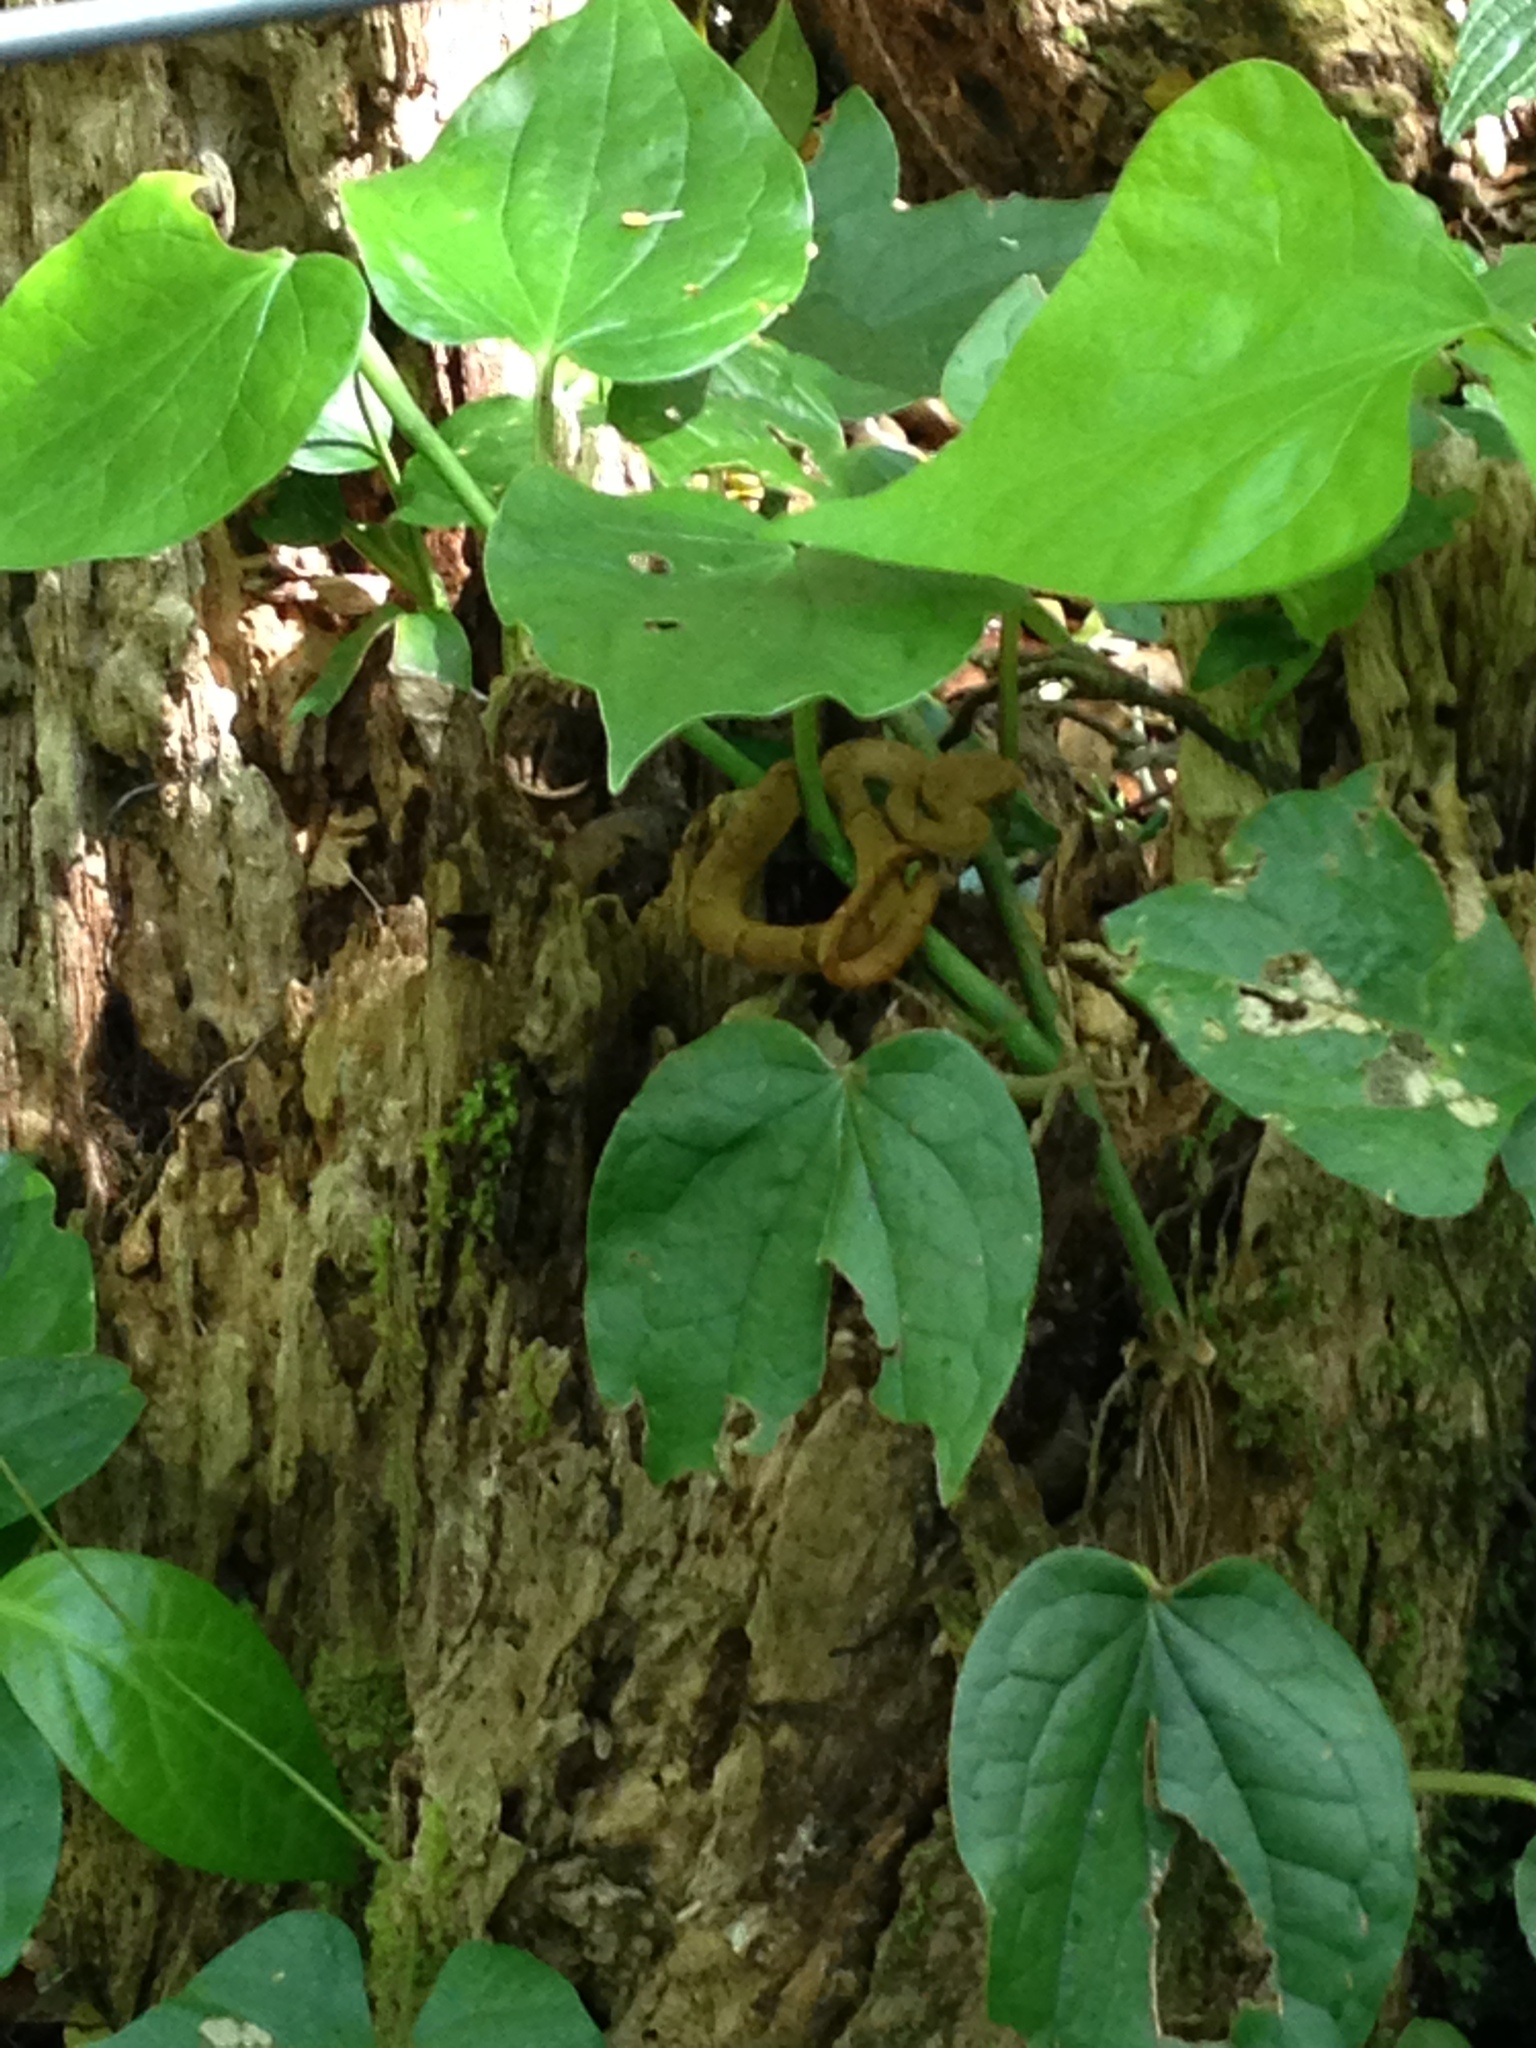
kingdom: Animalia
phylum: Chordata
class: Squamata
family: Viperidae
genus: Bothriechis
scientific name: Bothriechis lateralis
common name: Coffee palm viper
